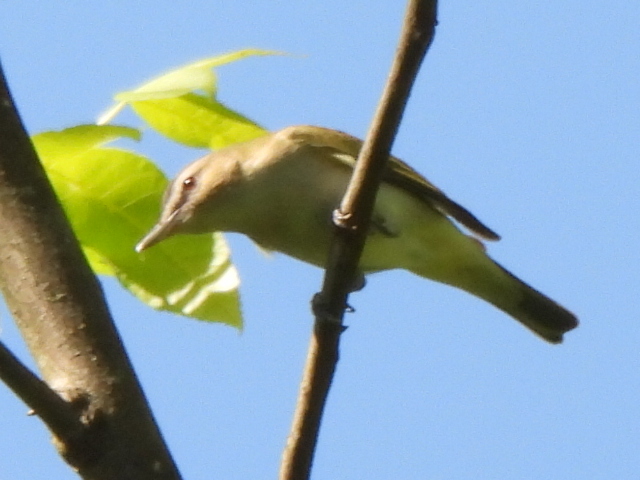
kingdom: Animalia
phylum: Chordata
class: Aves
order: Passeriformes
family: Vireonidae
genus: Vireo
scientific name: Vireo olivaceus
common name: Red-eyed vireo
